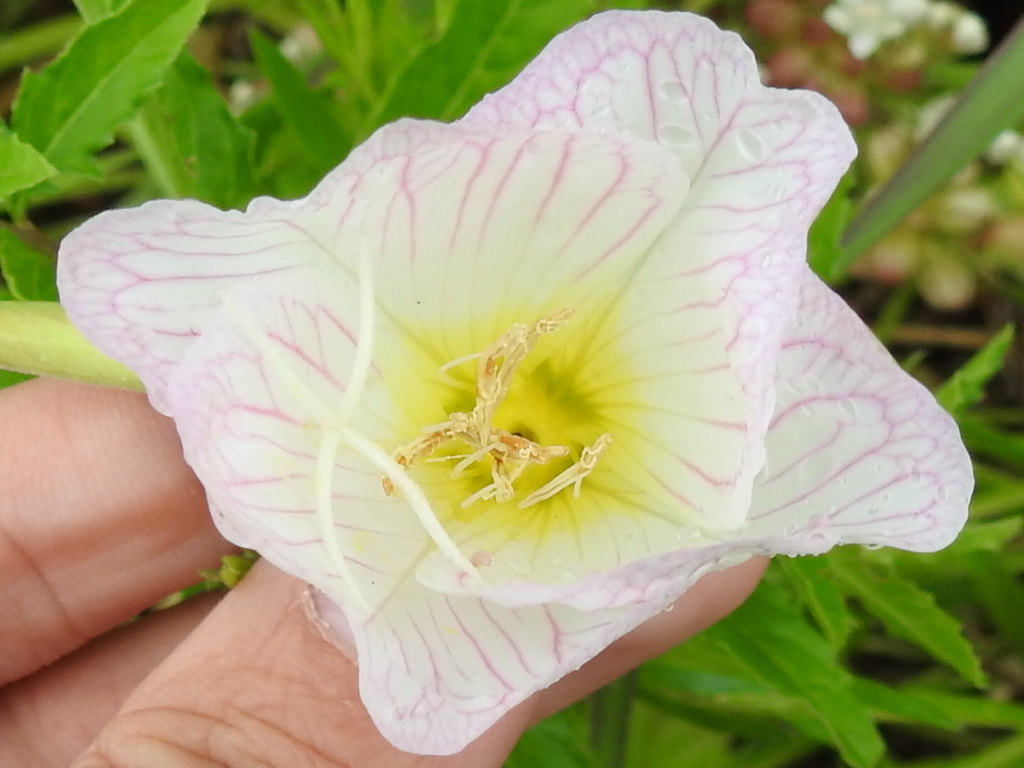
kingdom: Plantae
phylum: Tracheophyta
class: Magnoliopsida
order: Myrtales
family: Onagraceae
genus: Oenothera
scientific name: Oenothera speciosa
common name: White evening-primrose
